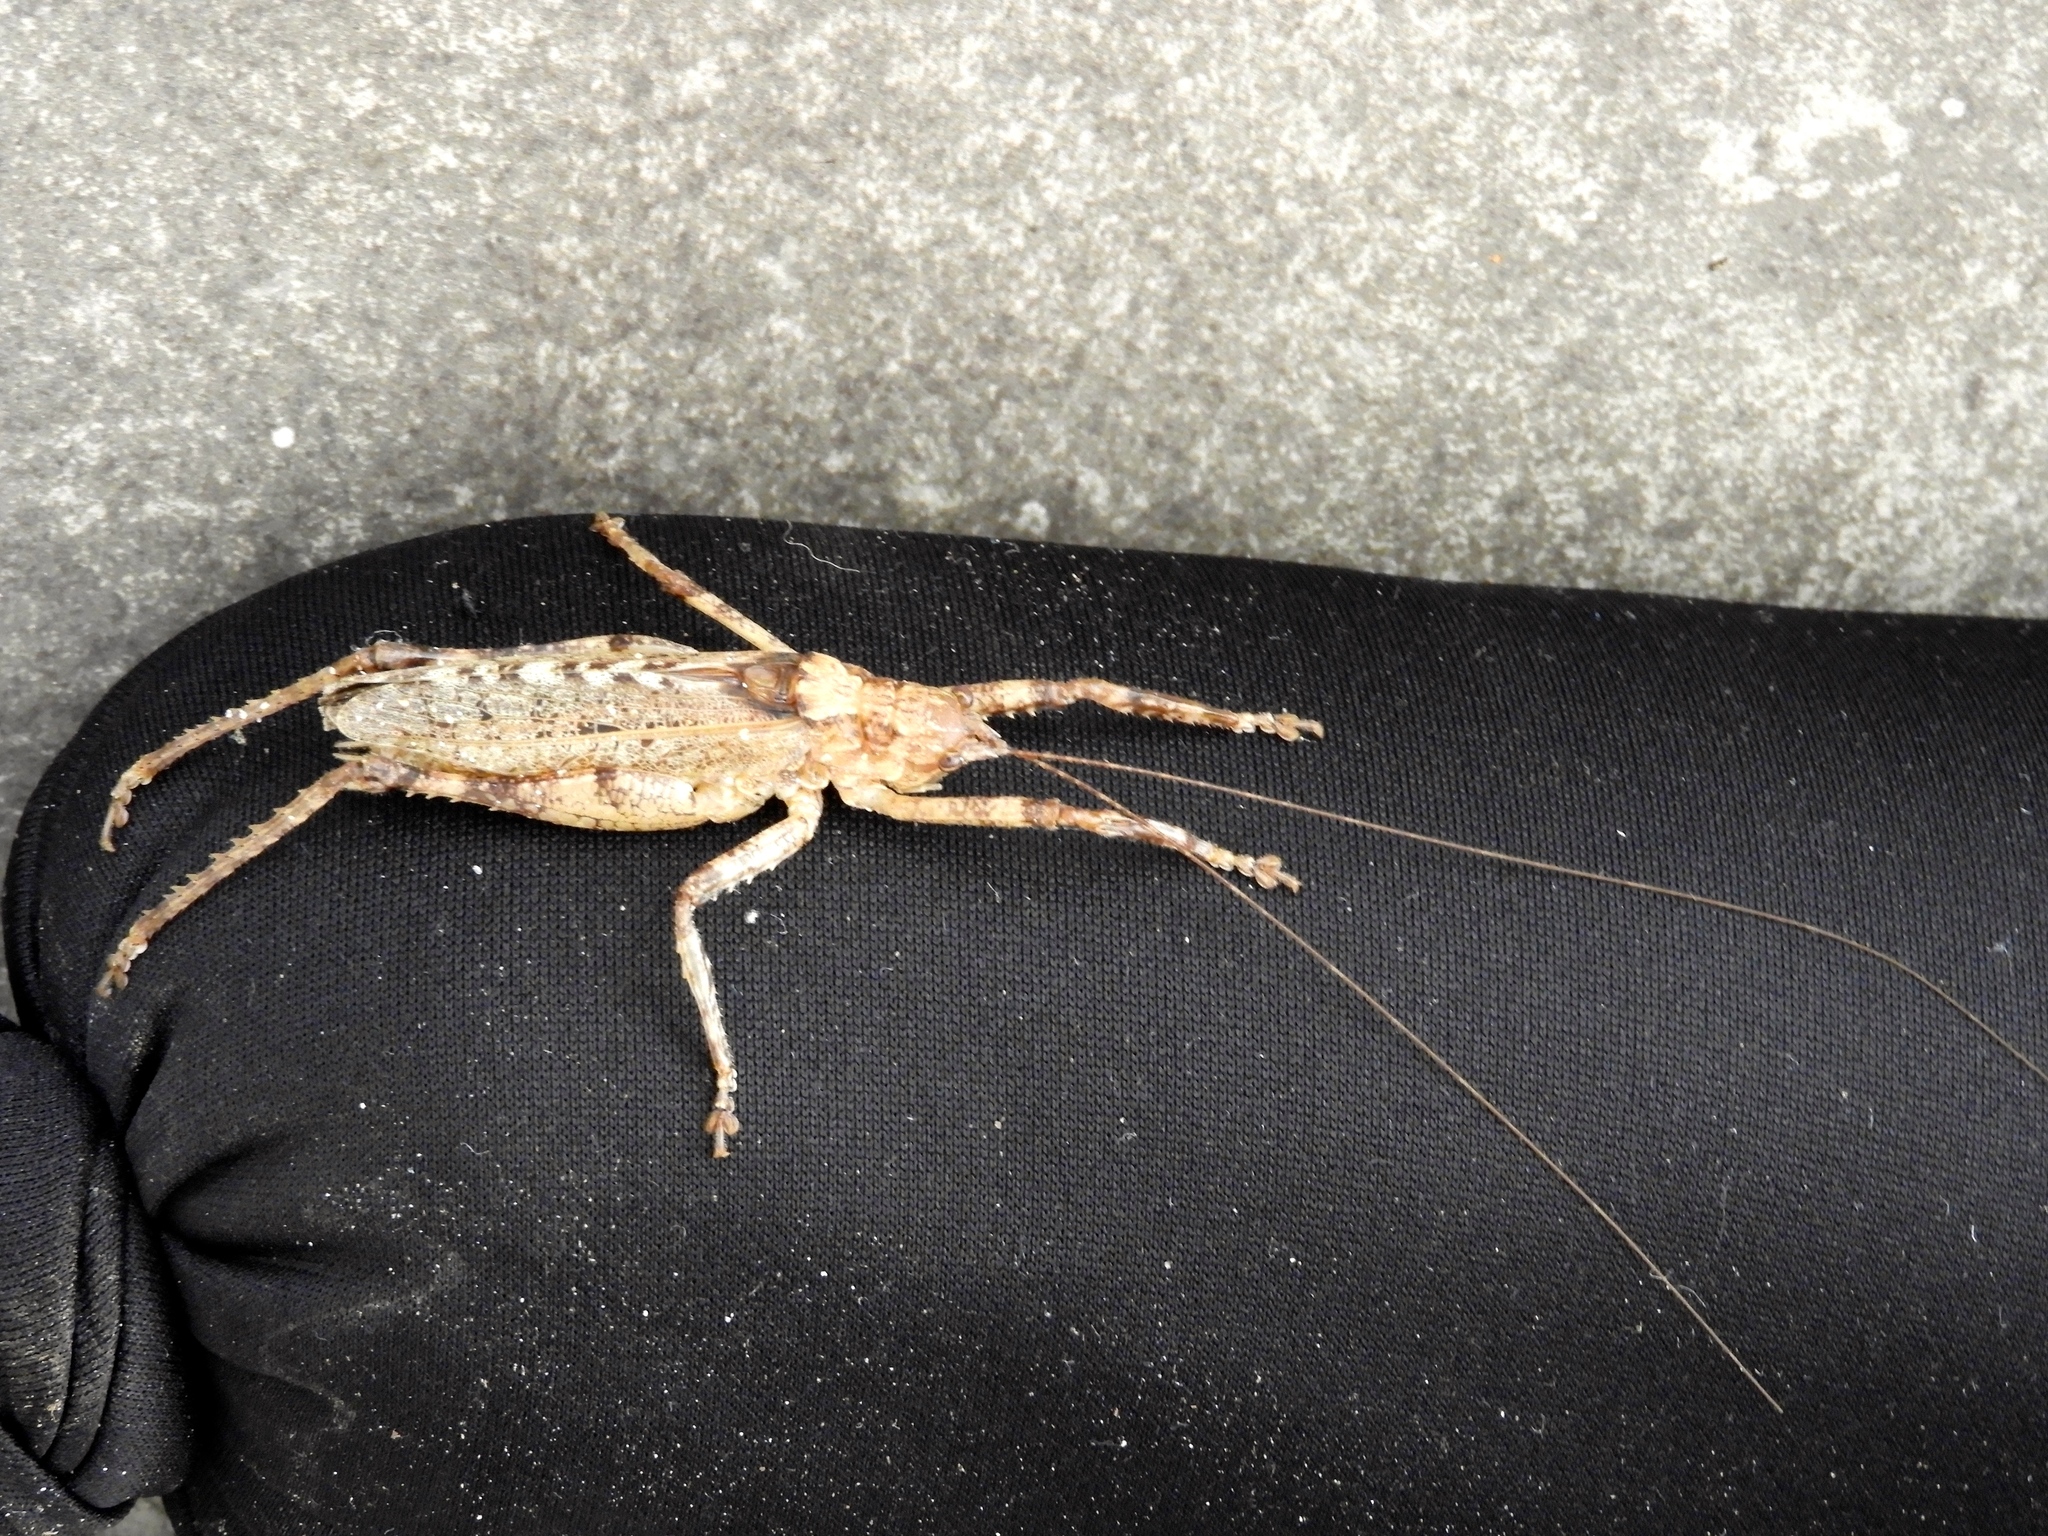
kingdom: Animalia
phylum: Arthropoda
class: Insecta
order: Orthoptera
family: Tettigoniidae
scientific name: Tettigoniidae
